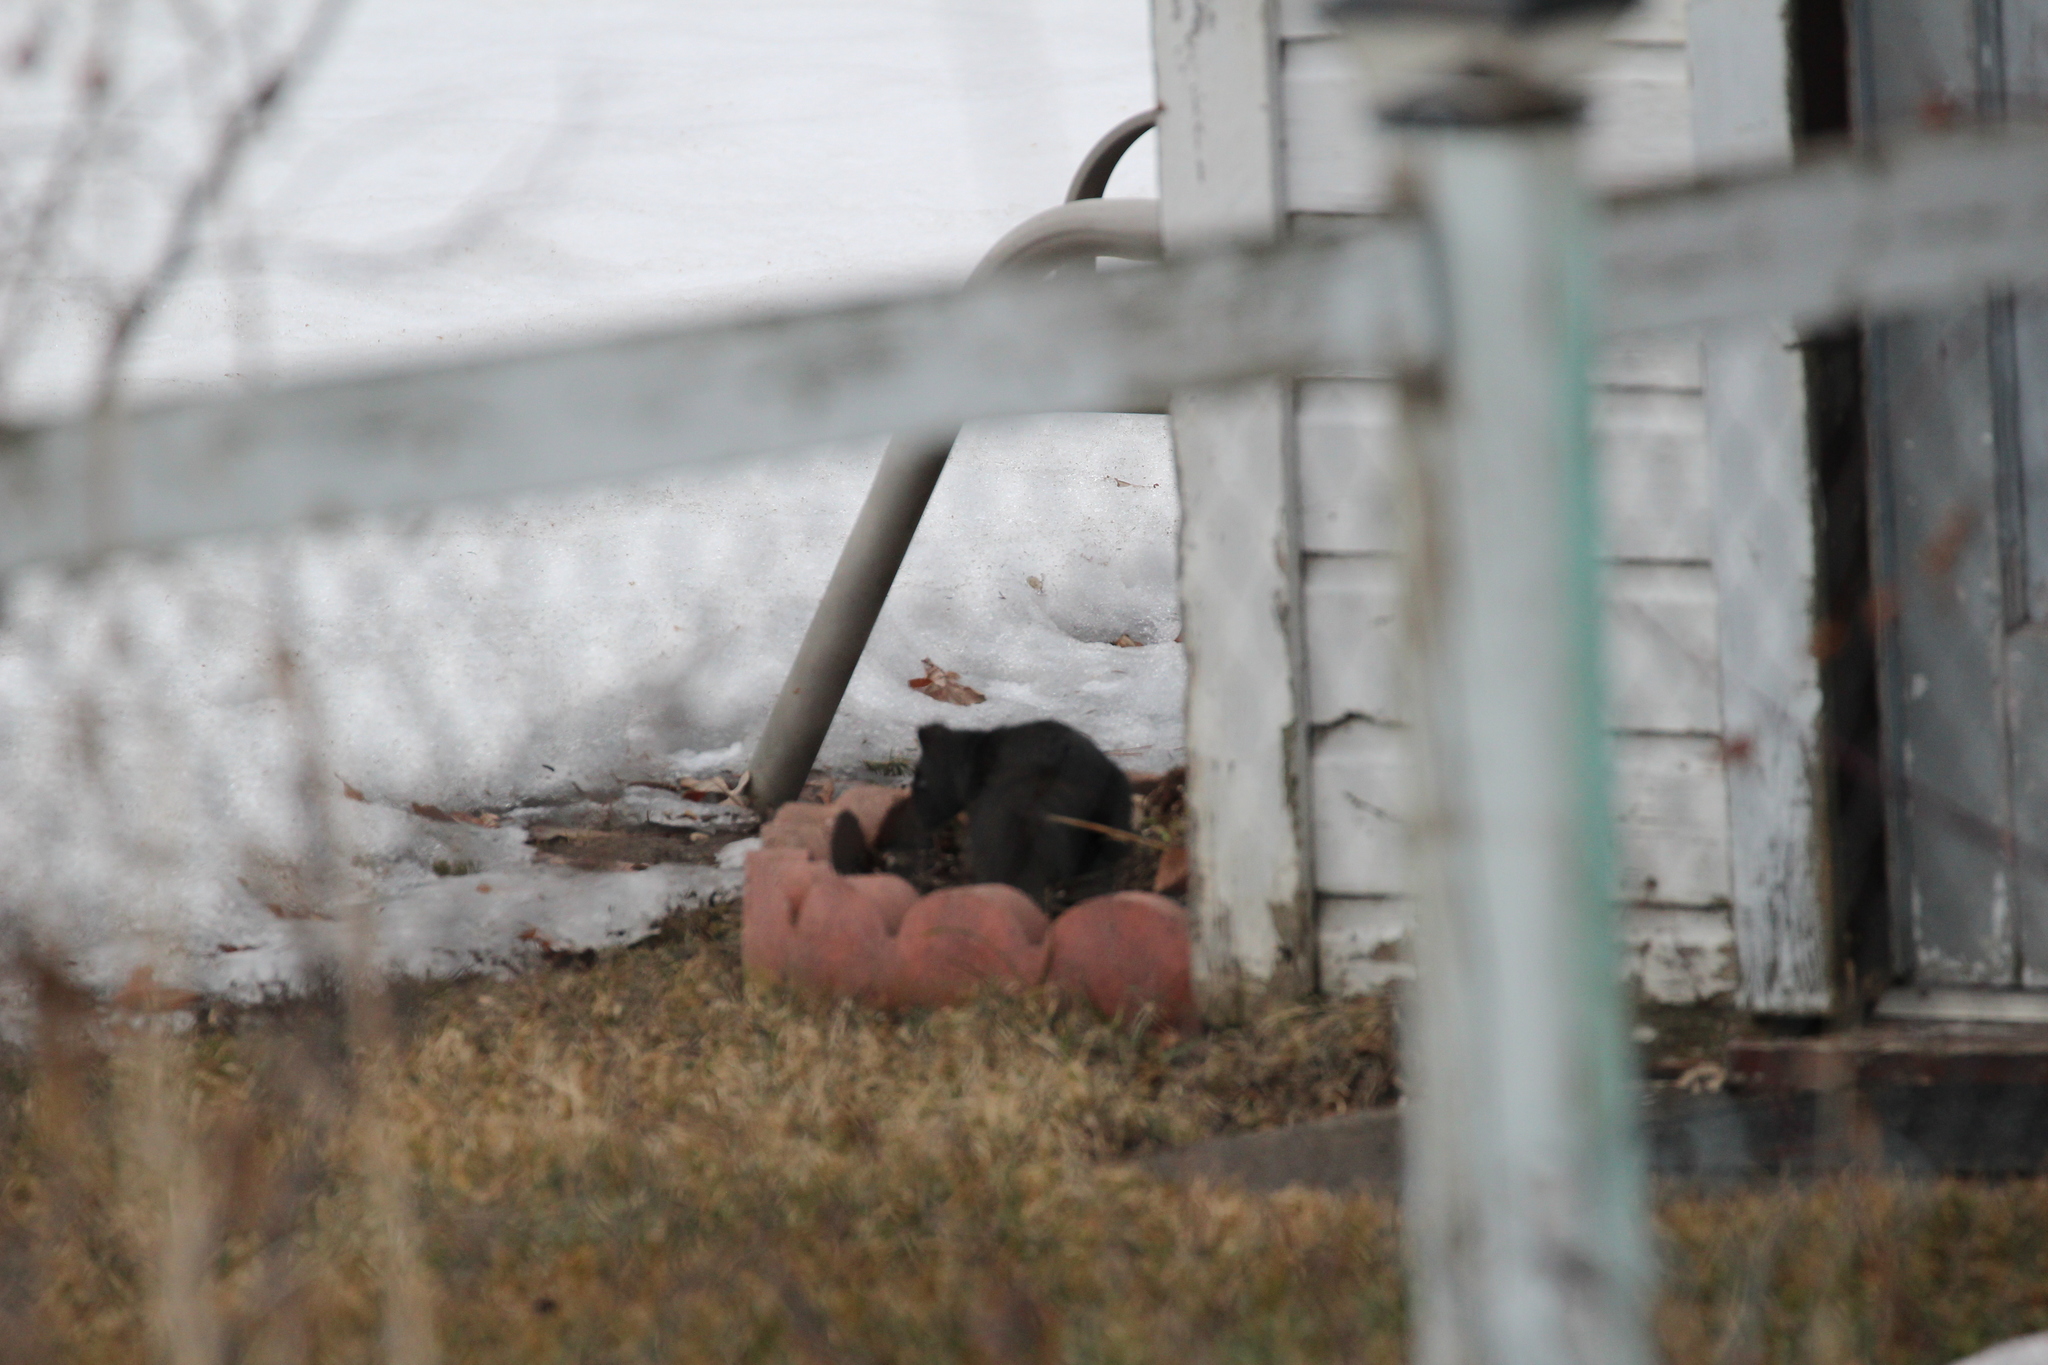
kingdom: Animalia
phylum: Chordata
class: Mammalia
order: Rodentia
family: Sciuridae
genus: Sciurus
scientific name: Sciurus carolinensis
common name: Eastern gray squirrel
